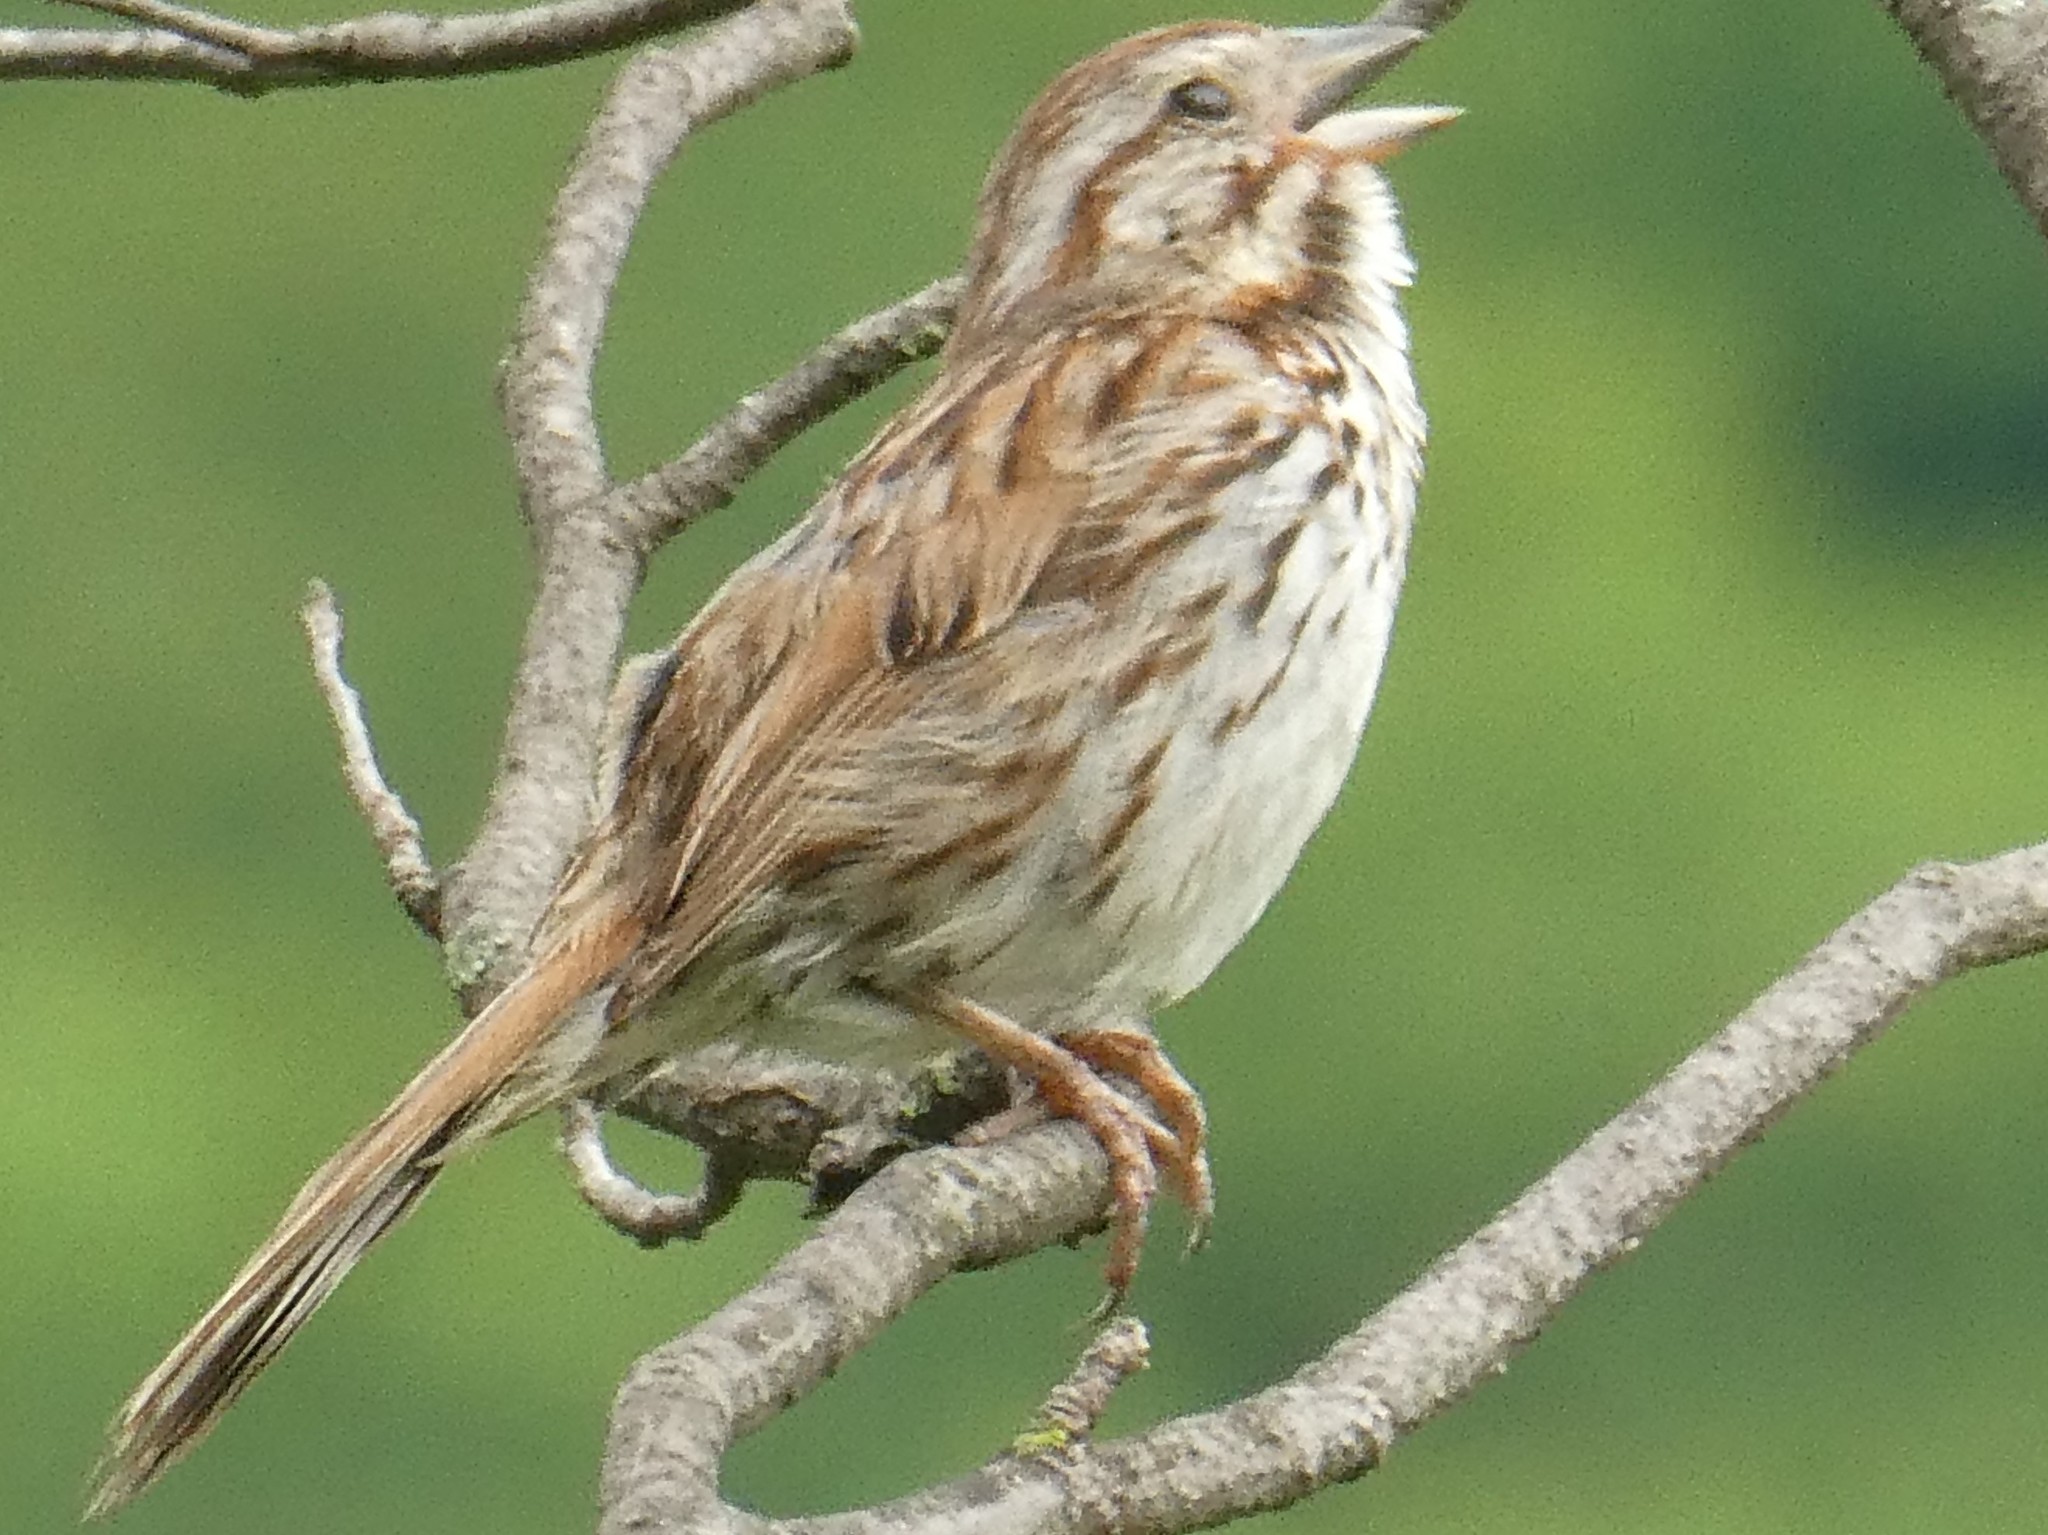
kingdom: Animalia
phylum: Chordata
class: Aves
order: Passeriformes
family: Passerellidae
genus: Melospiza
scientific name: Melospiza melodia
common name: Song sparrow
